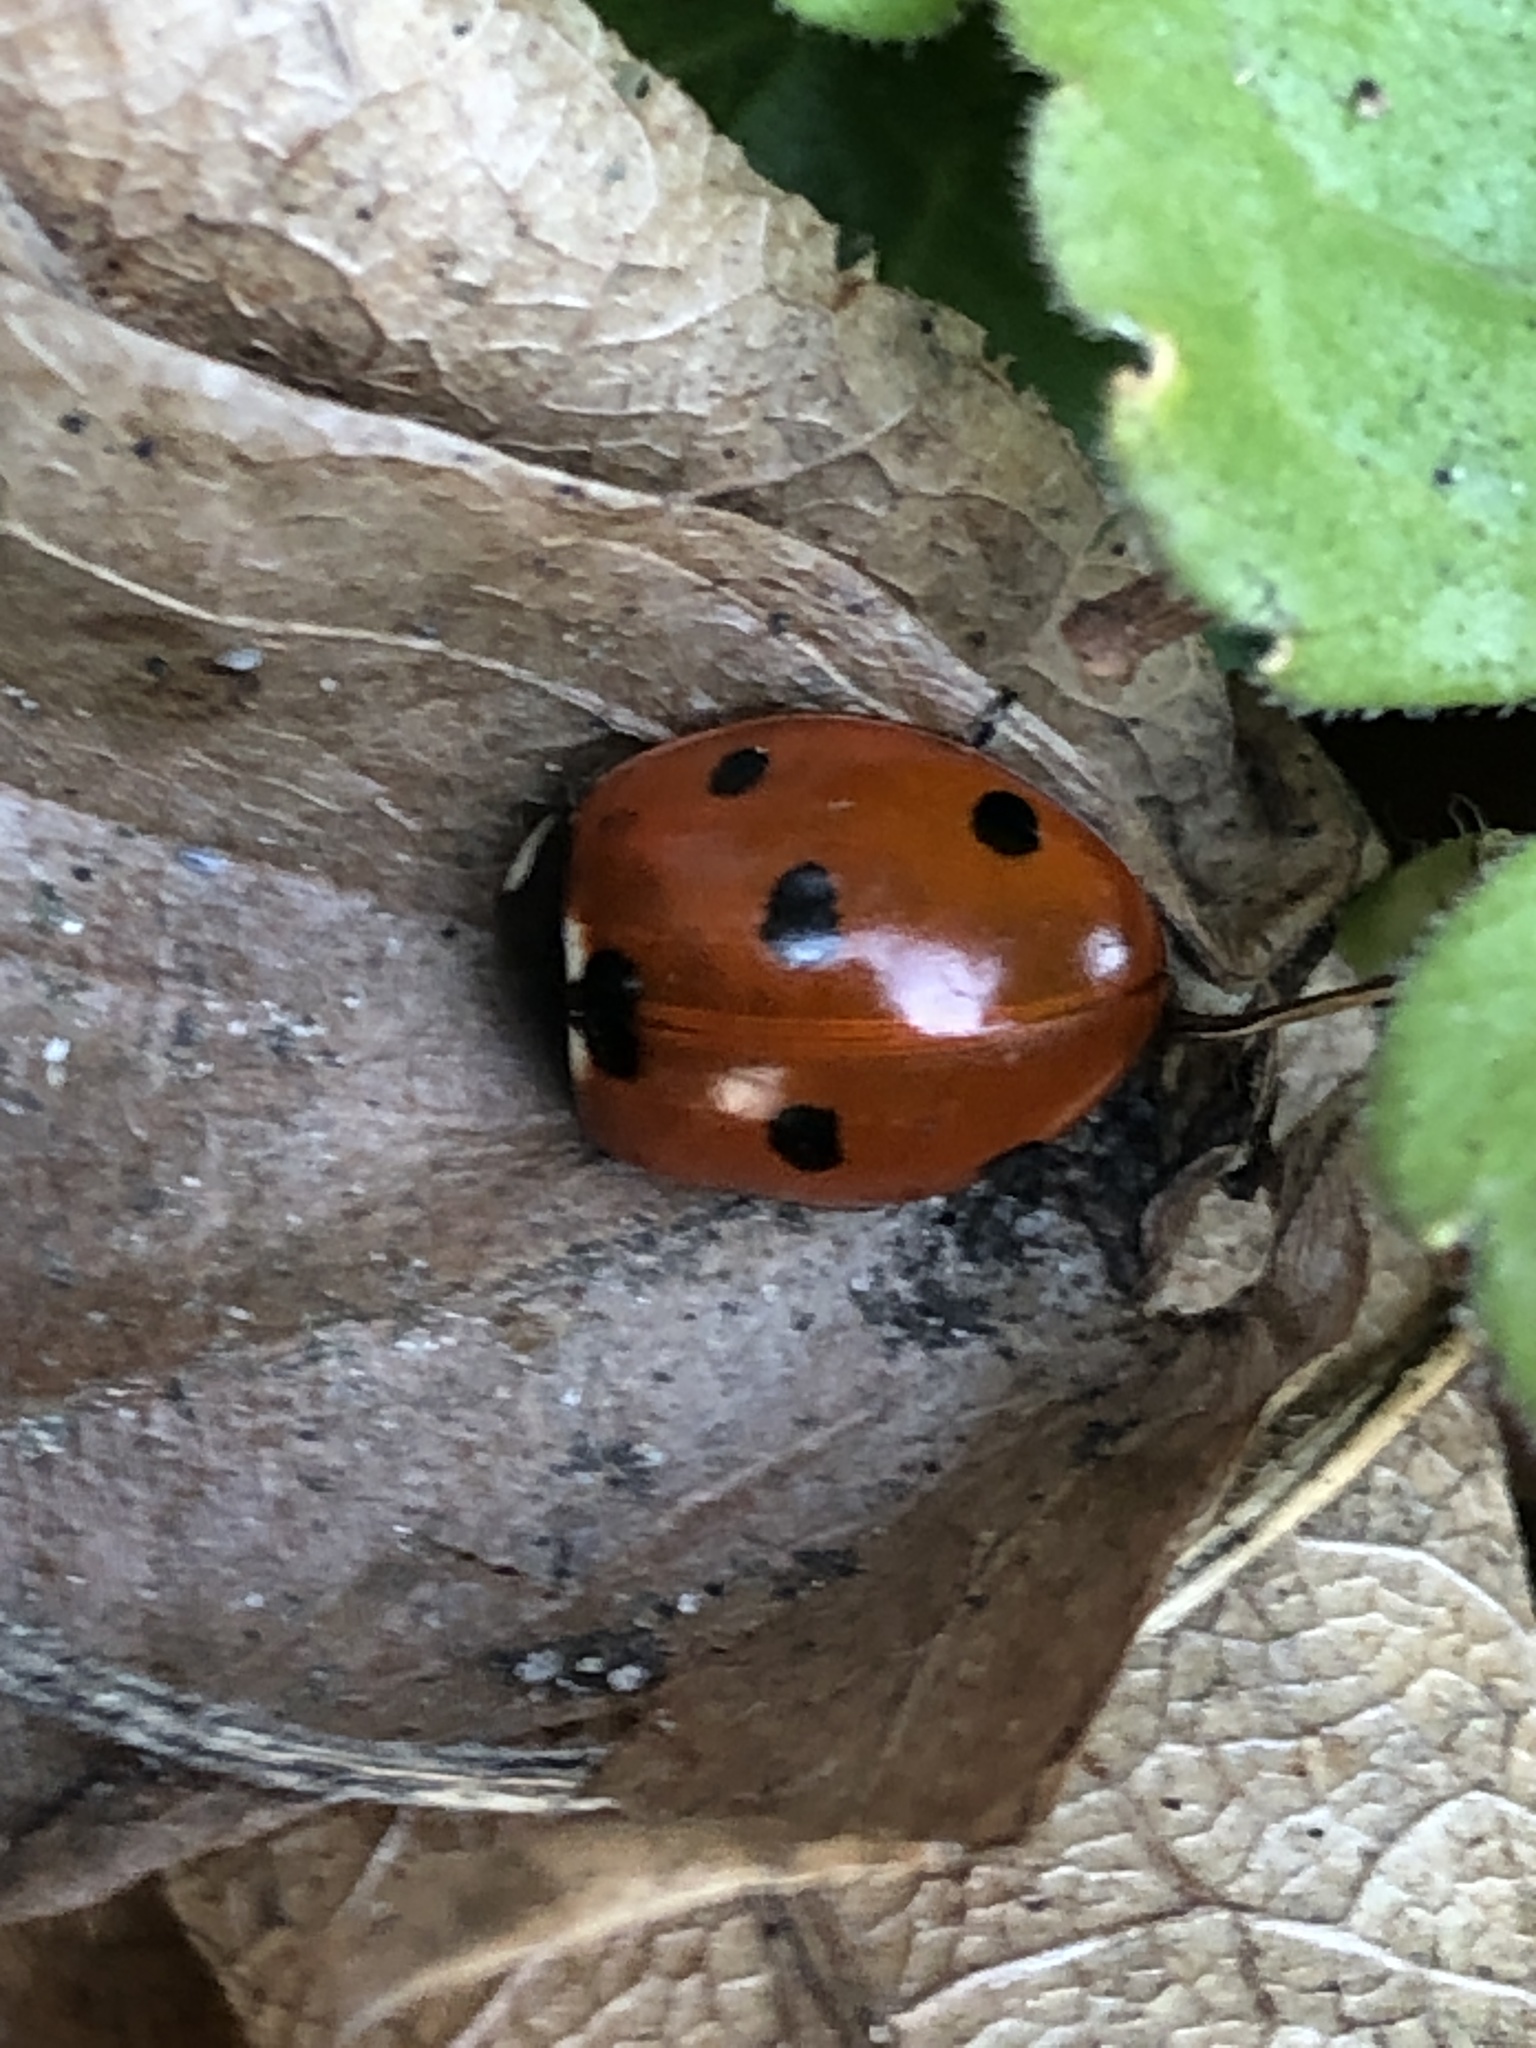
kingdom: Animalia
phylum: Arthropoda
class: Insecta
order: Coleoptera
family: Coccinellidae
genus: Coccinella
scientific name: Coccinella septempunctata
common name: Sevenspotted lady beetle
